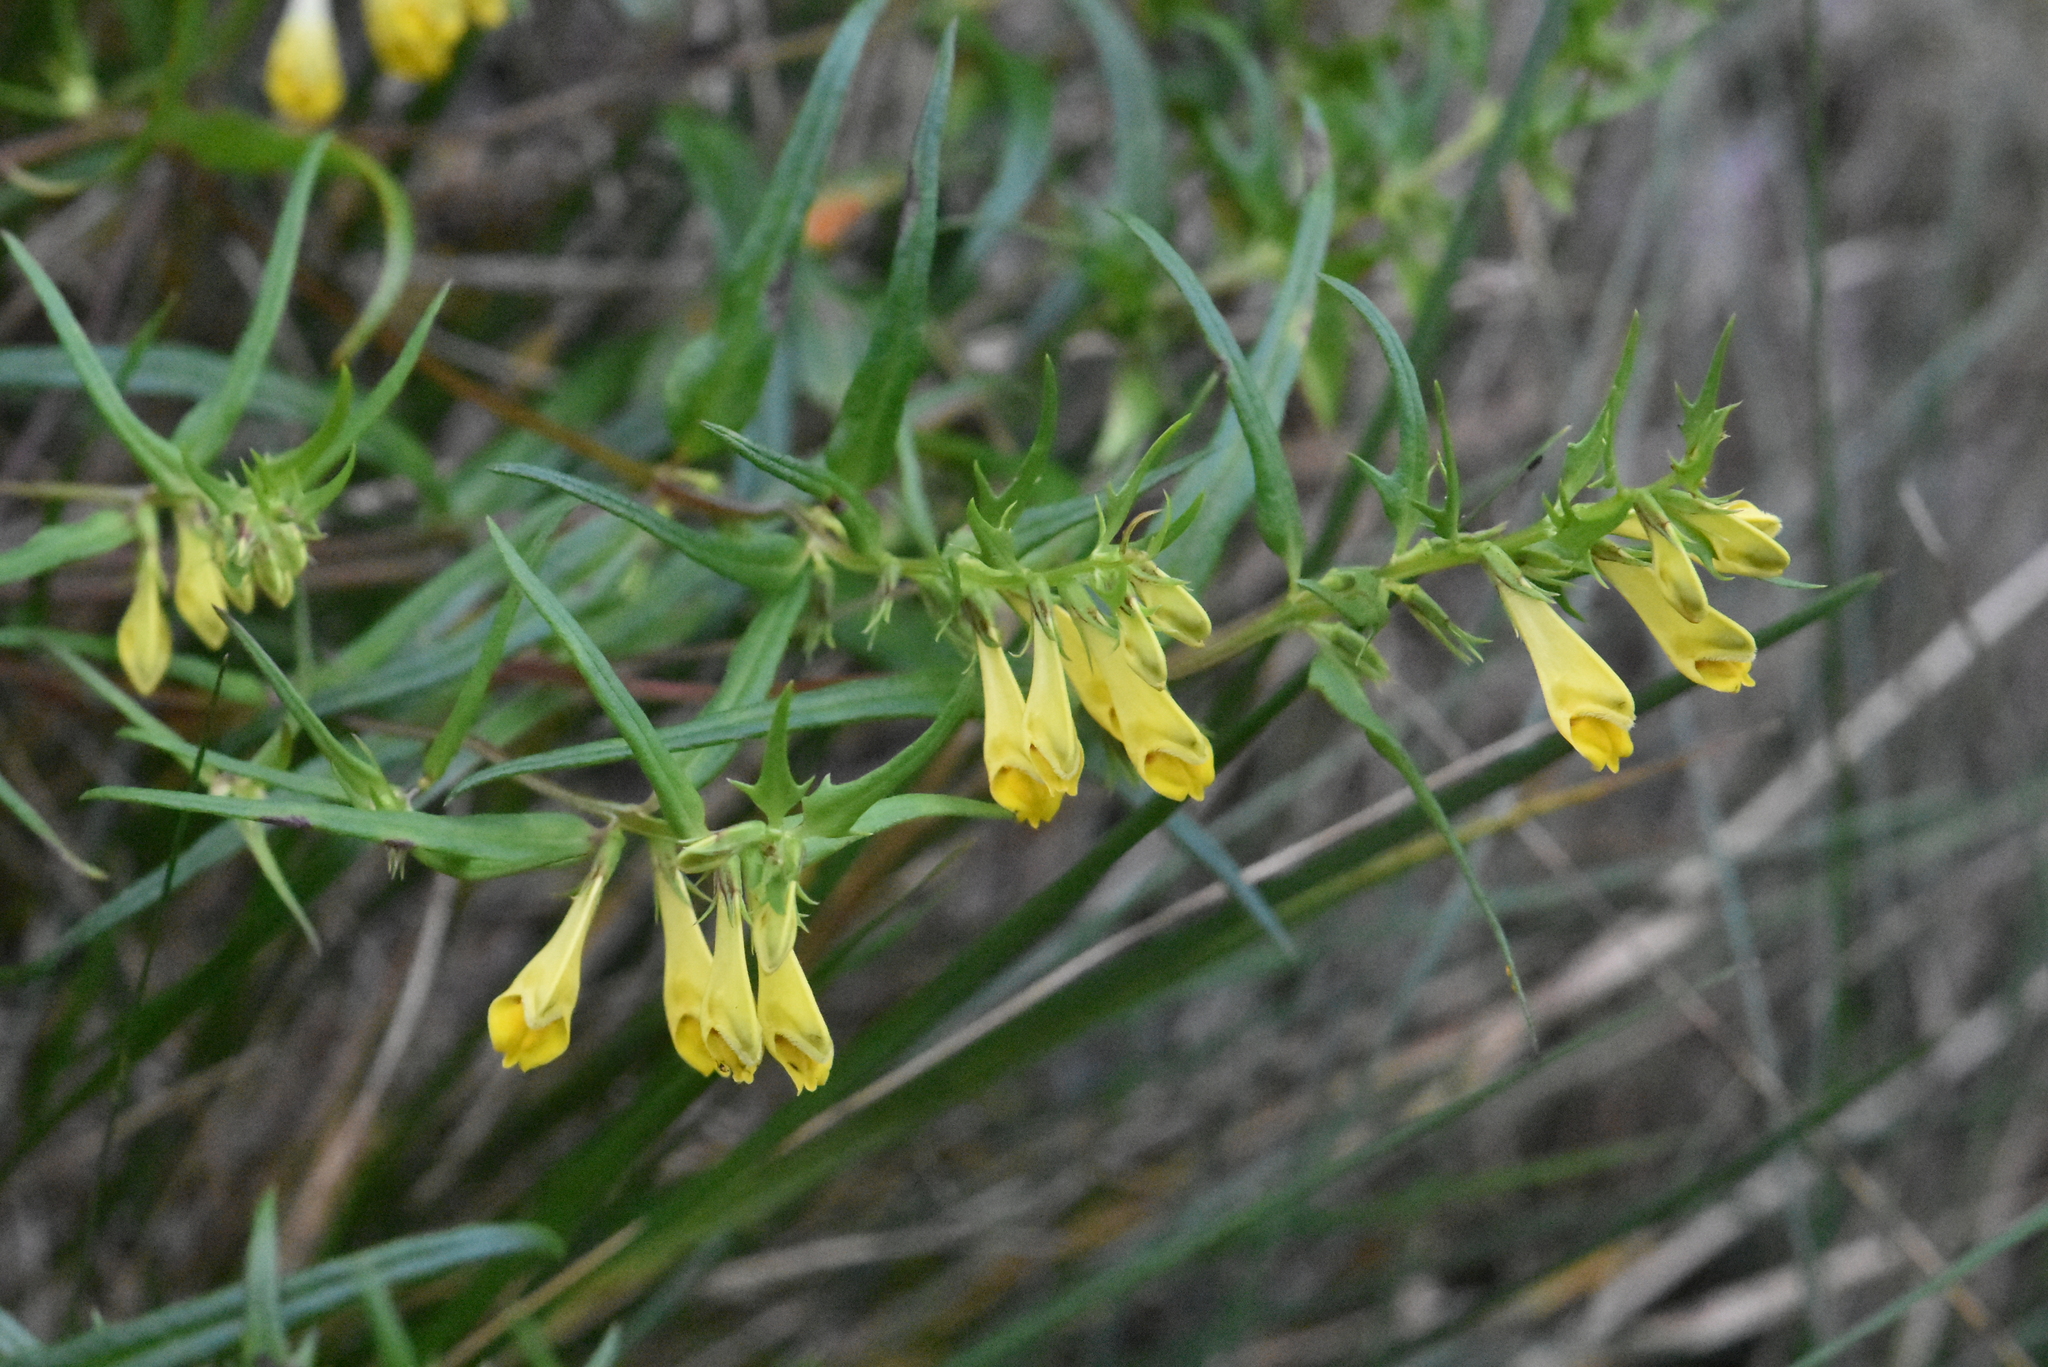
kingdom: Plantae
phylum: Tracheophyta
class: Magnoliopsida
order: Lamiales
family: Orobanchaceae
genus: Melampyrum
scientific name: Melampyrum pratense
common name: Common cow-wheat
